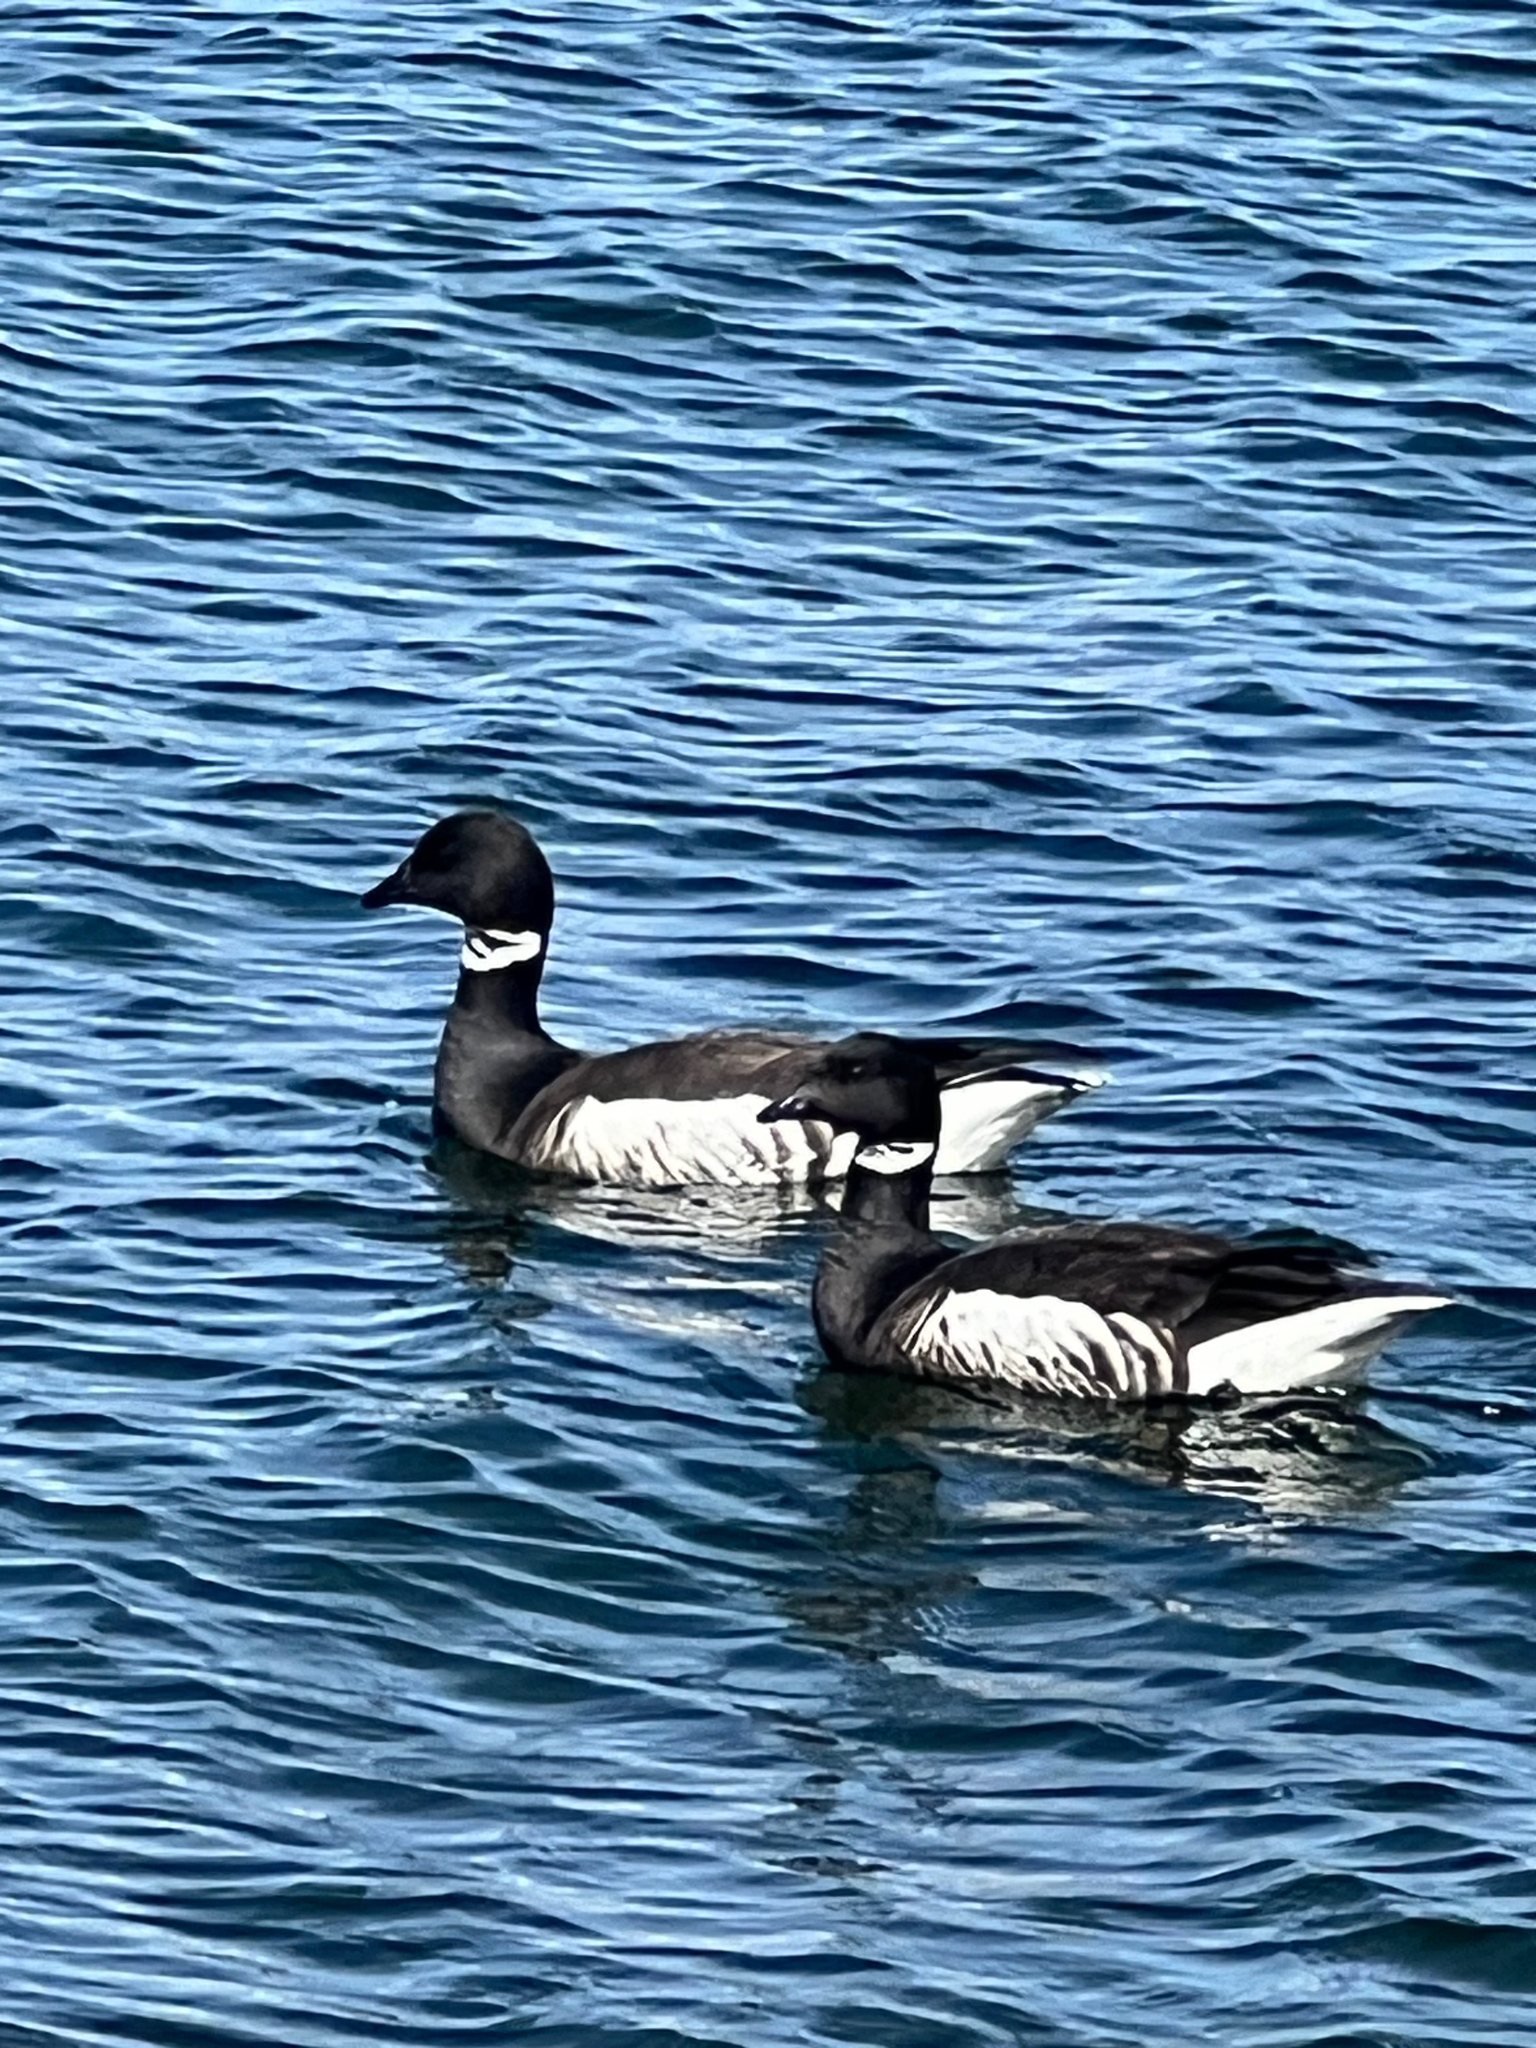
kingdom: Animalia
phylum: Chordata
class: Aves
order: Anseriformes
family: Anatidae
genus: Branta
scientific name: Branta bernicla
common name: Brant goose
